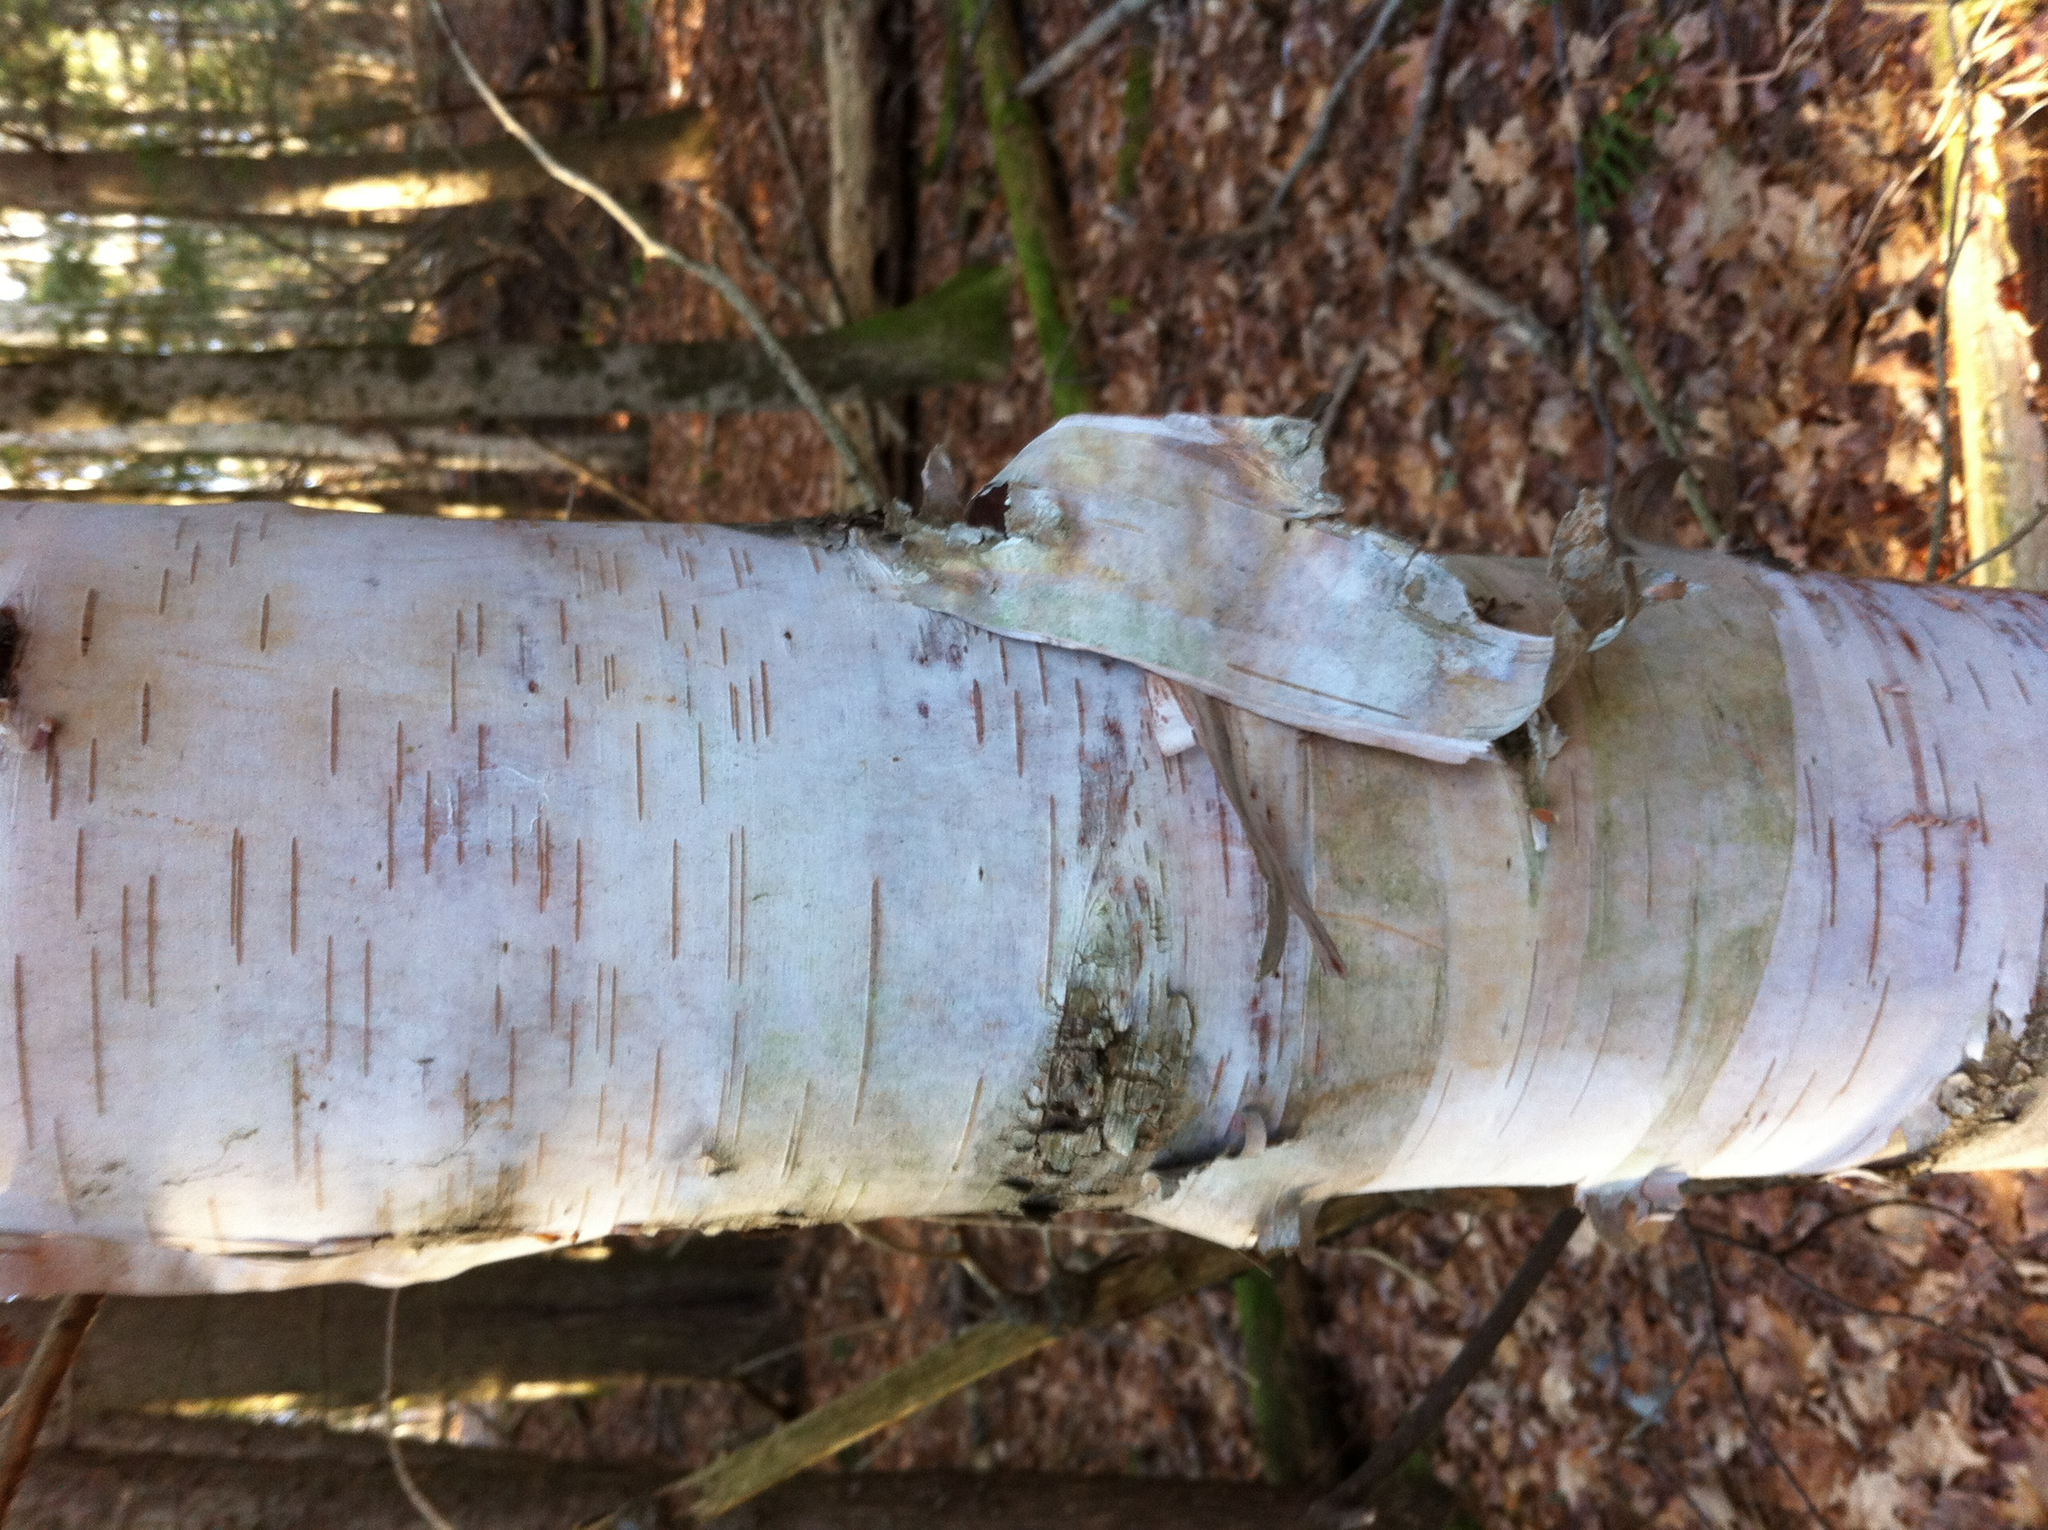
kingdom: Plantae
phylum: Tracheophyta
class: Magnoliopsida
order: Fagales
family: Betulaceae
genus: Betula
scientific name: Betula papyrifera
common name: Paper birch
